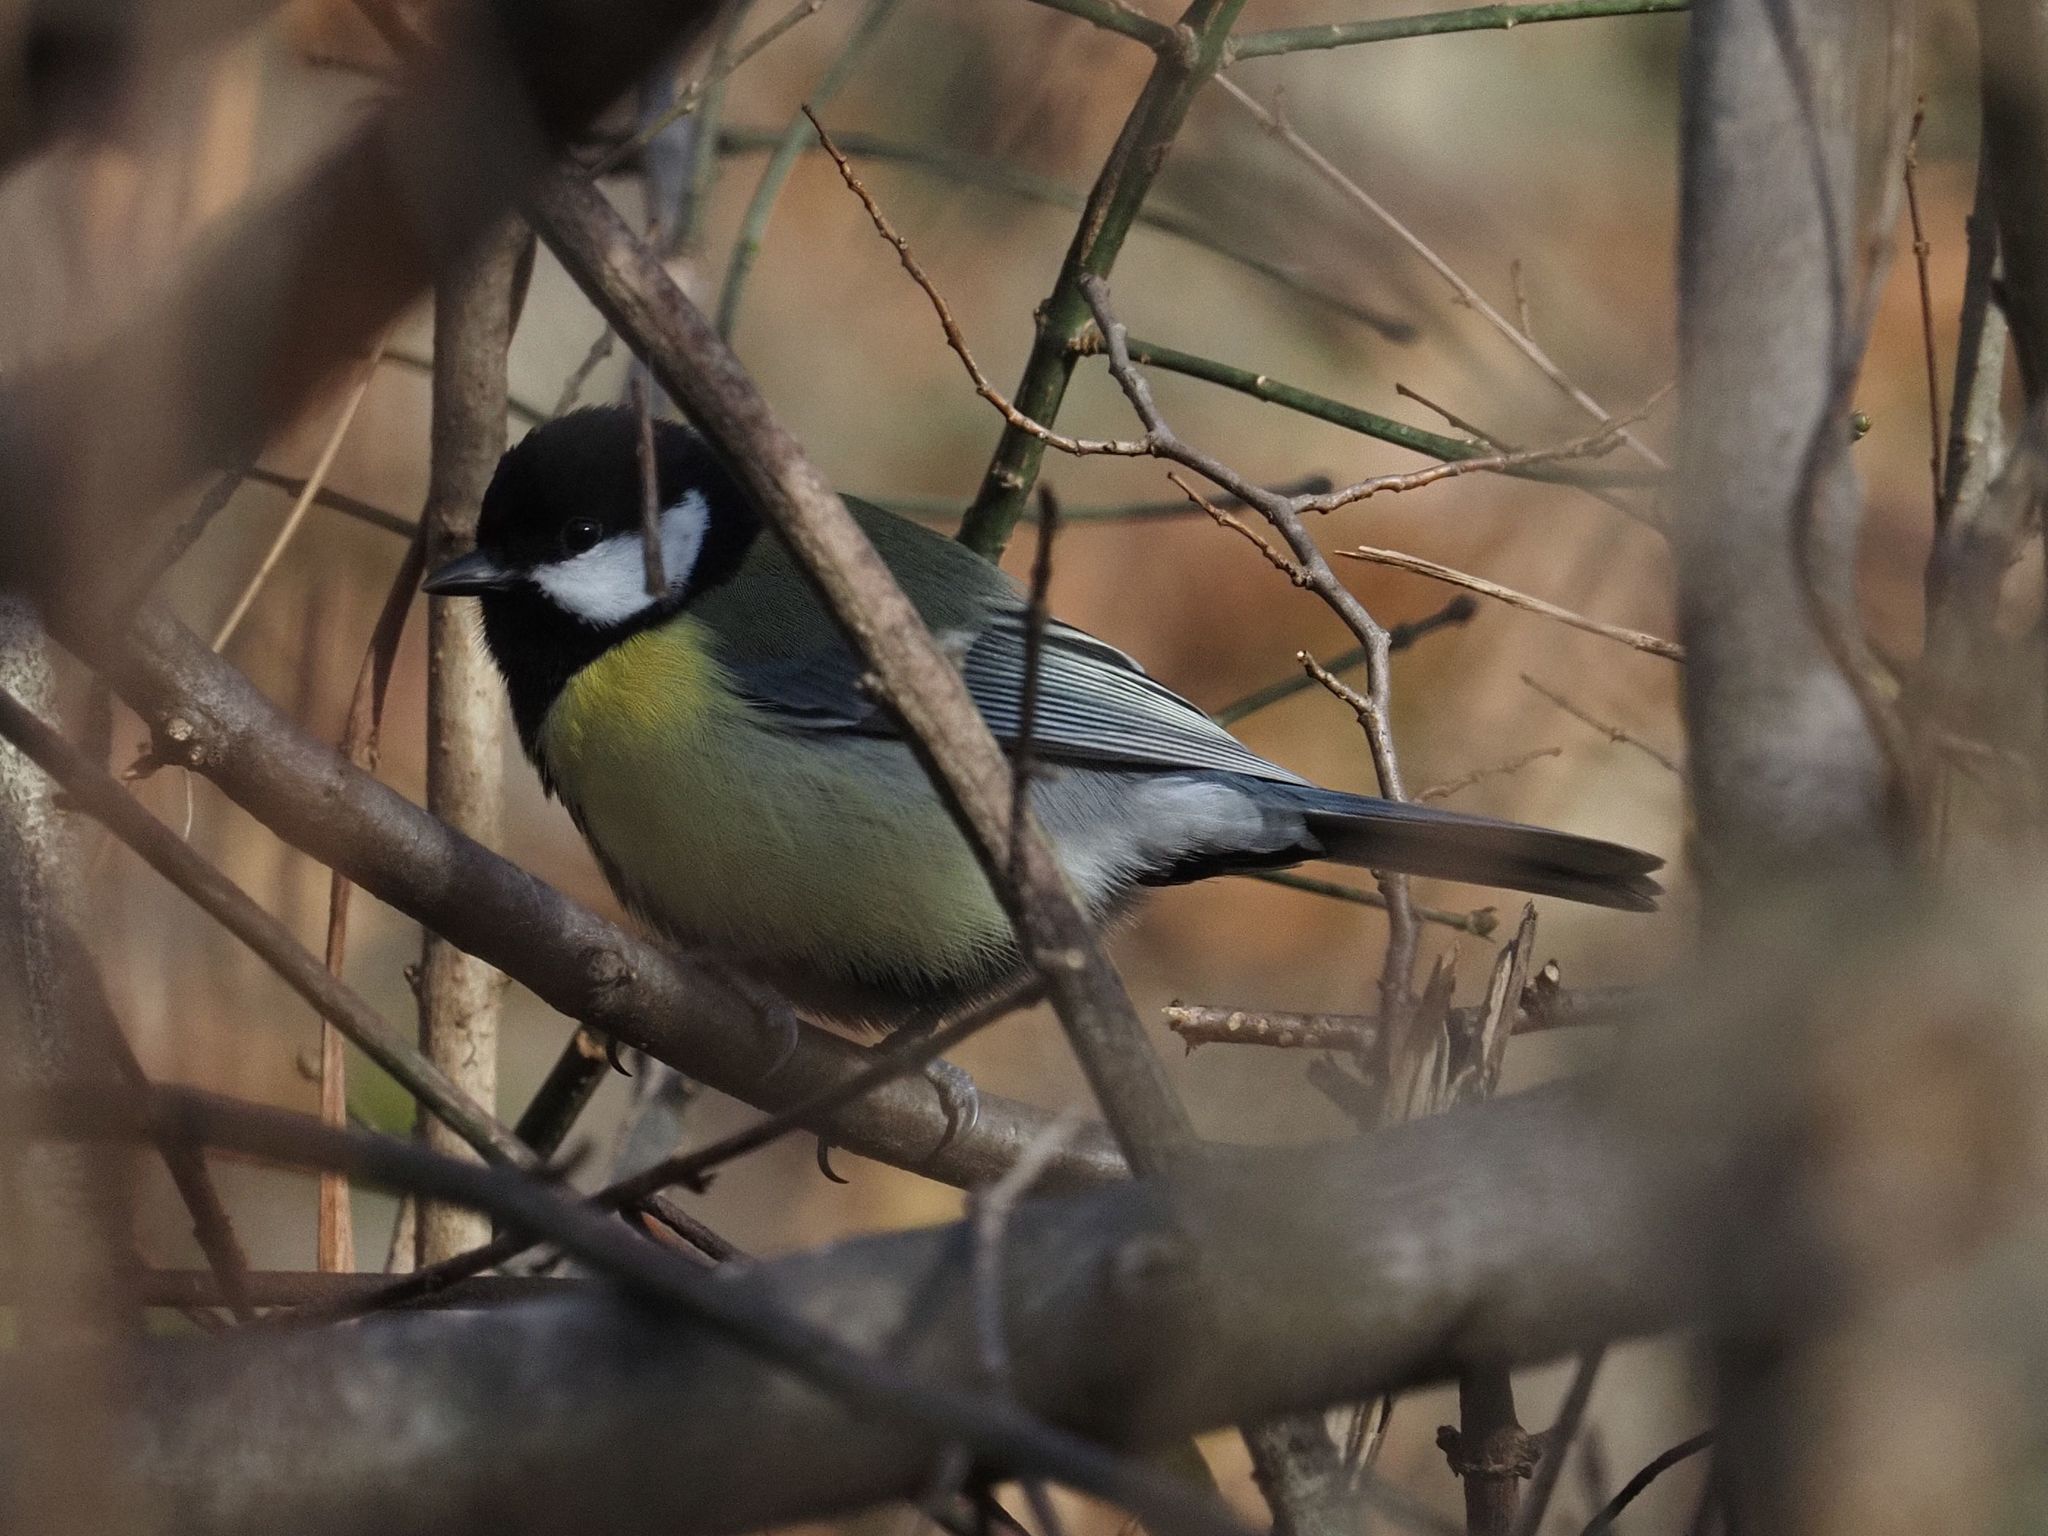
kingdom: Animalia
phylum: Chordata
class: Aves
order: Passeriformes
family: Paridae
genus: Parus
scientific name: Parus major
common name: Great tit
